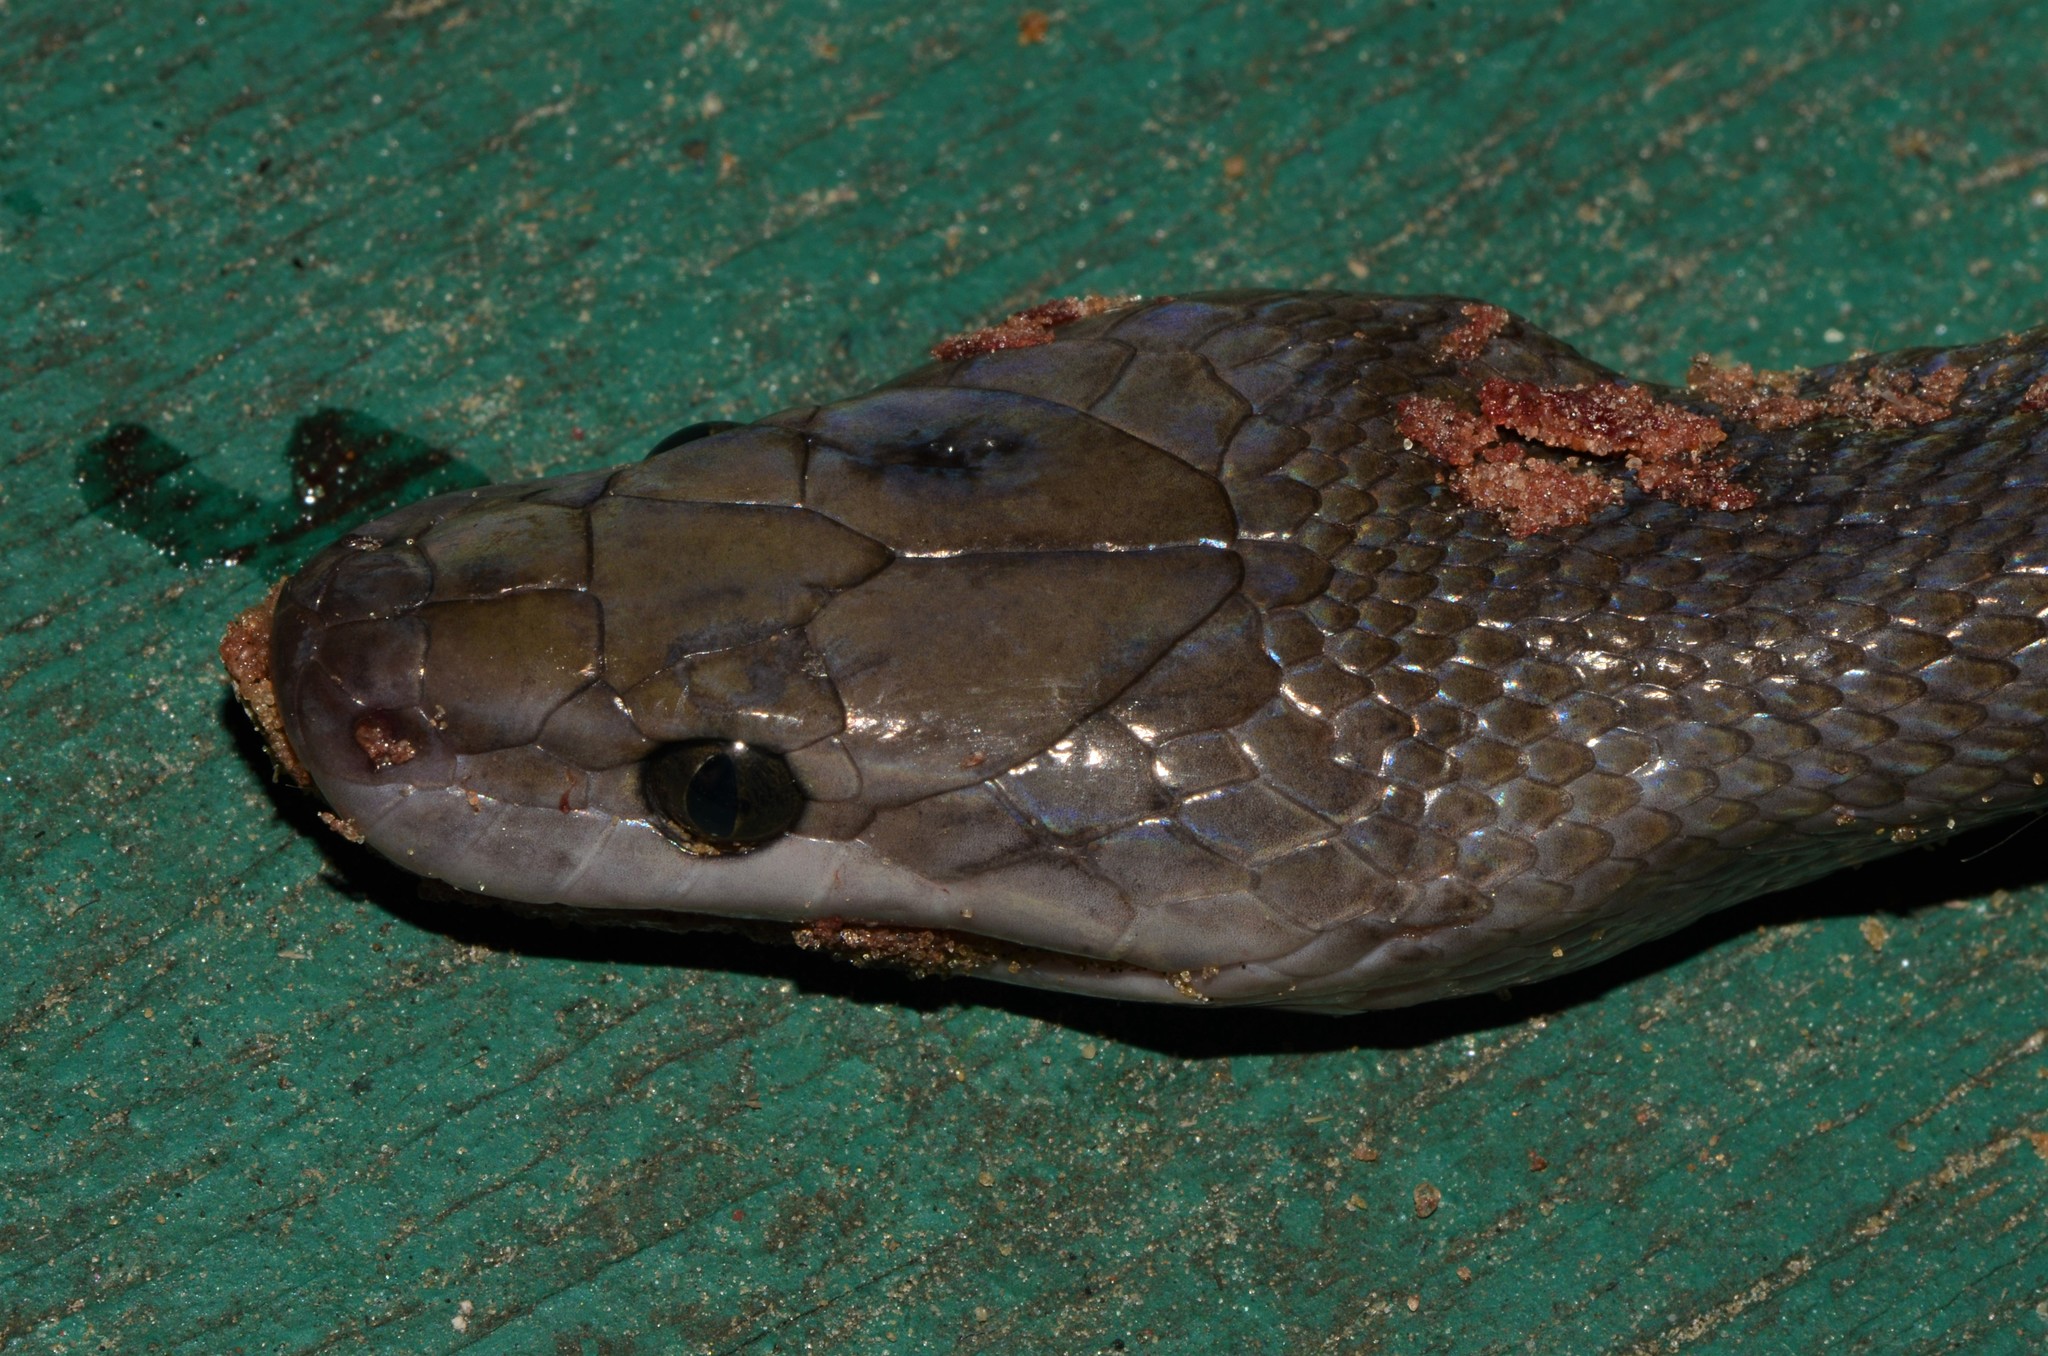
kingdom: Animalia
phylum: Chordata
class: Squamata
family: Lamprophiidae
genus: Boaedon
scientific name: Boaedon perisilvestris
